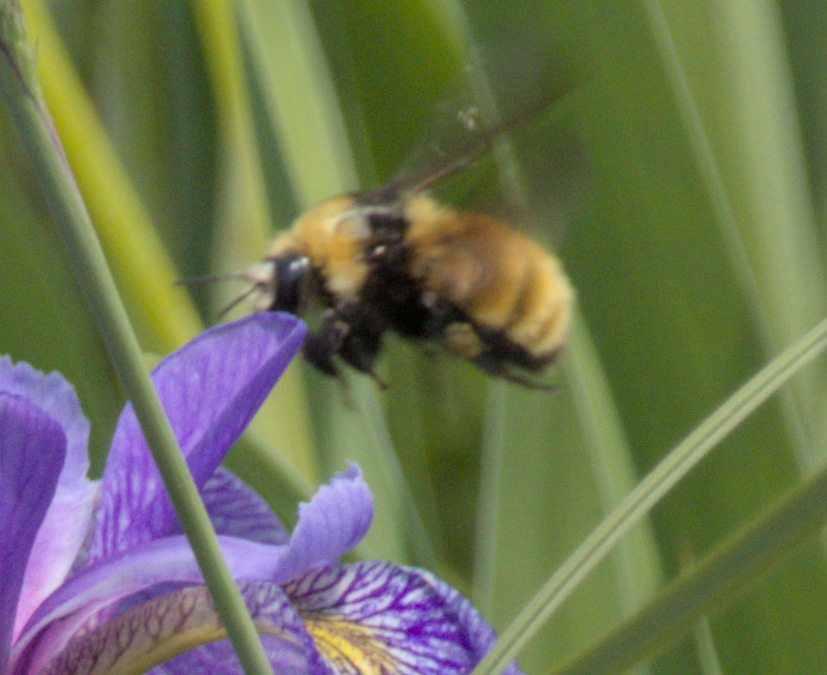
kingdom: Animalia
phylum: Arthropoda
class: Insecta
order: Hymenoptera
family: Apidae
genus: Bombus
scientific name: Bombus borealis
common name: Northern amber bumble bee
